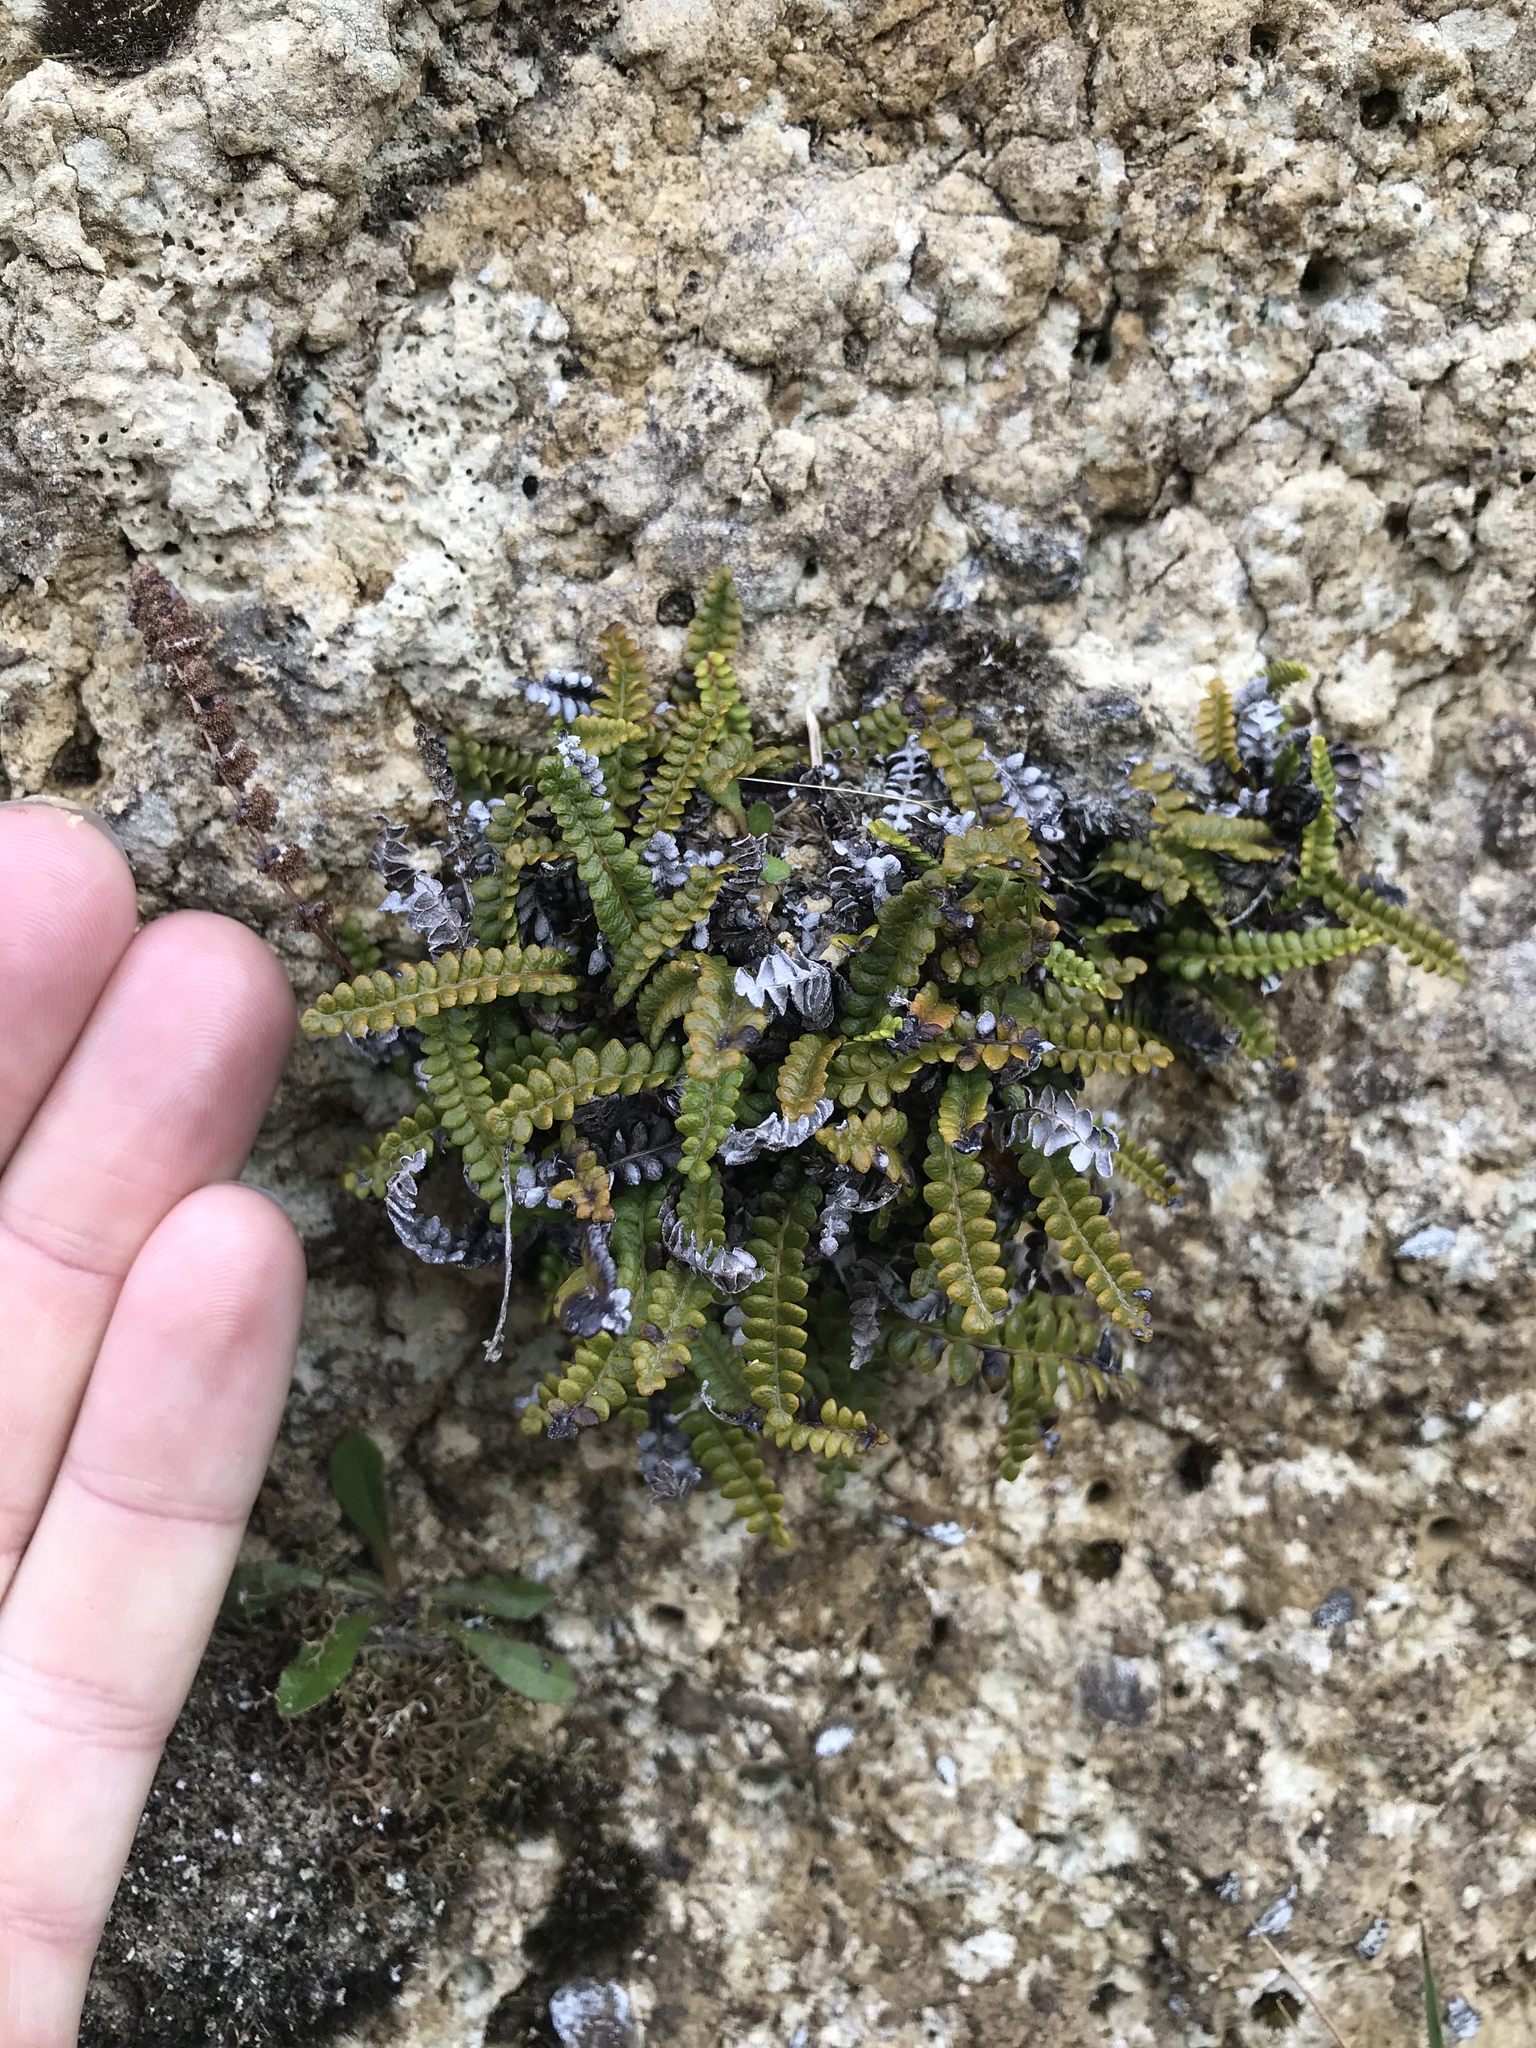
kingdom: Plantae
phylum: Tracheophyta
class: Polypodiopsida
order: Polypodiales
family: Blechnaceae
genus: Austroblechnum
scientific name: Austroblechnum penna-marina
